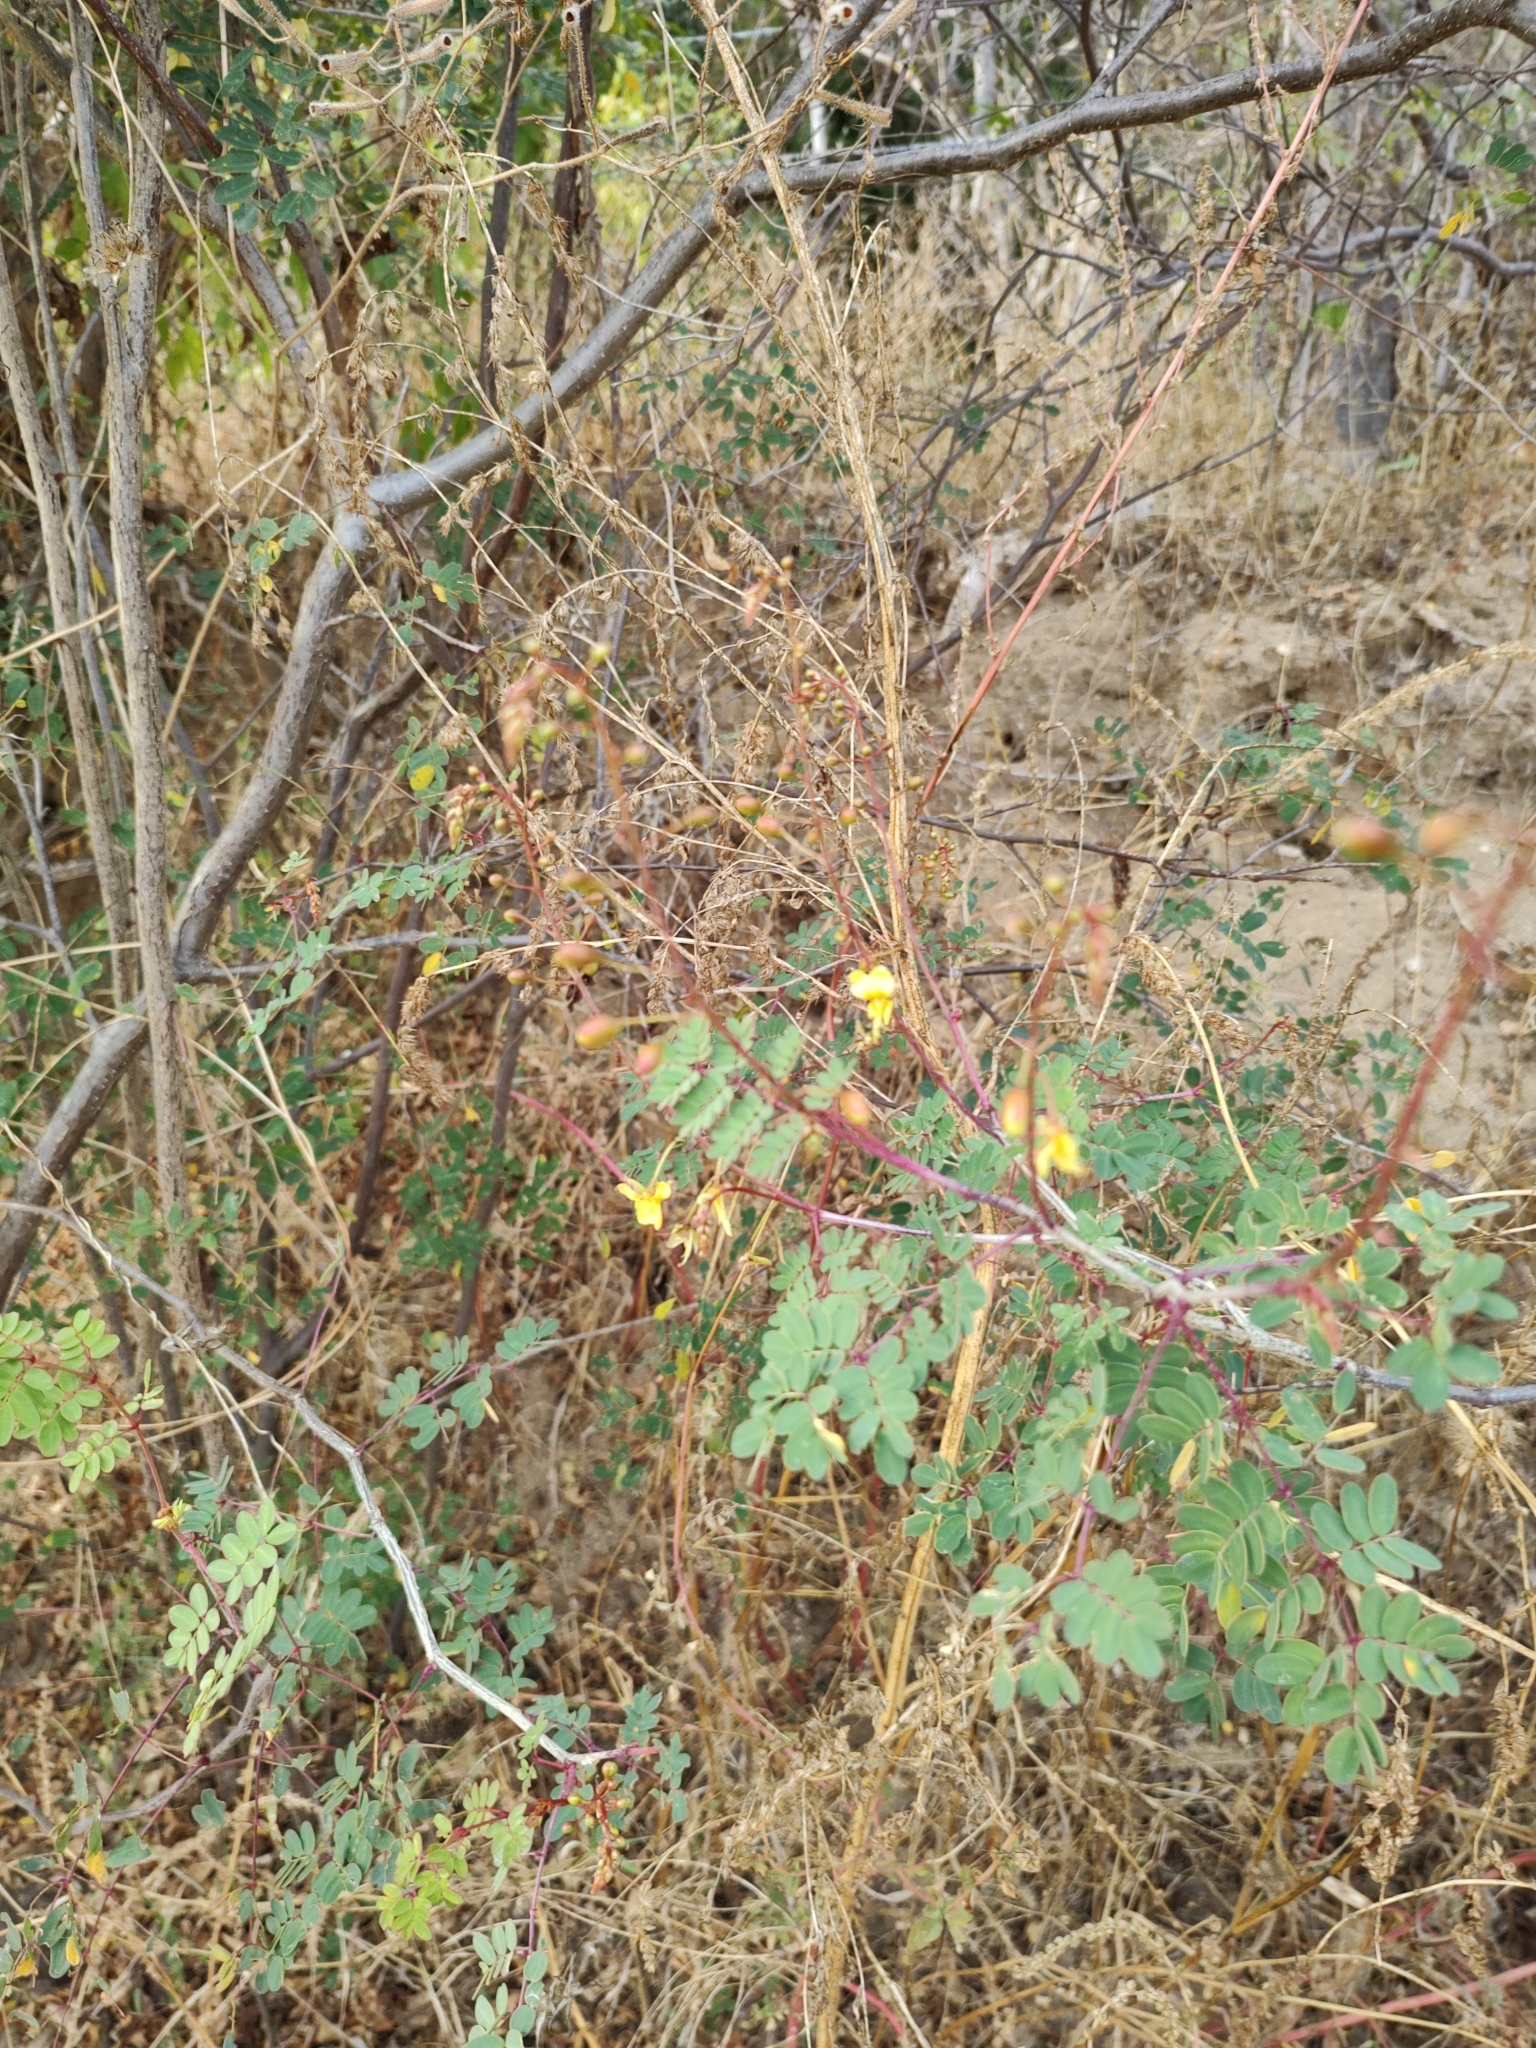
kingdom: Plantae
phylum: Tracheophyta
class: Magnoliopsida
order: Fabales
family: Fabaceae
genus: Erythrostemon
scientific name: Erythrostemon pannosus
